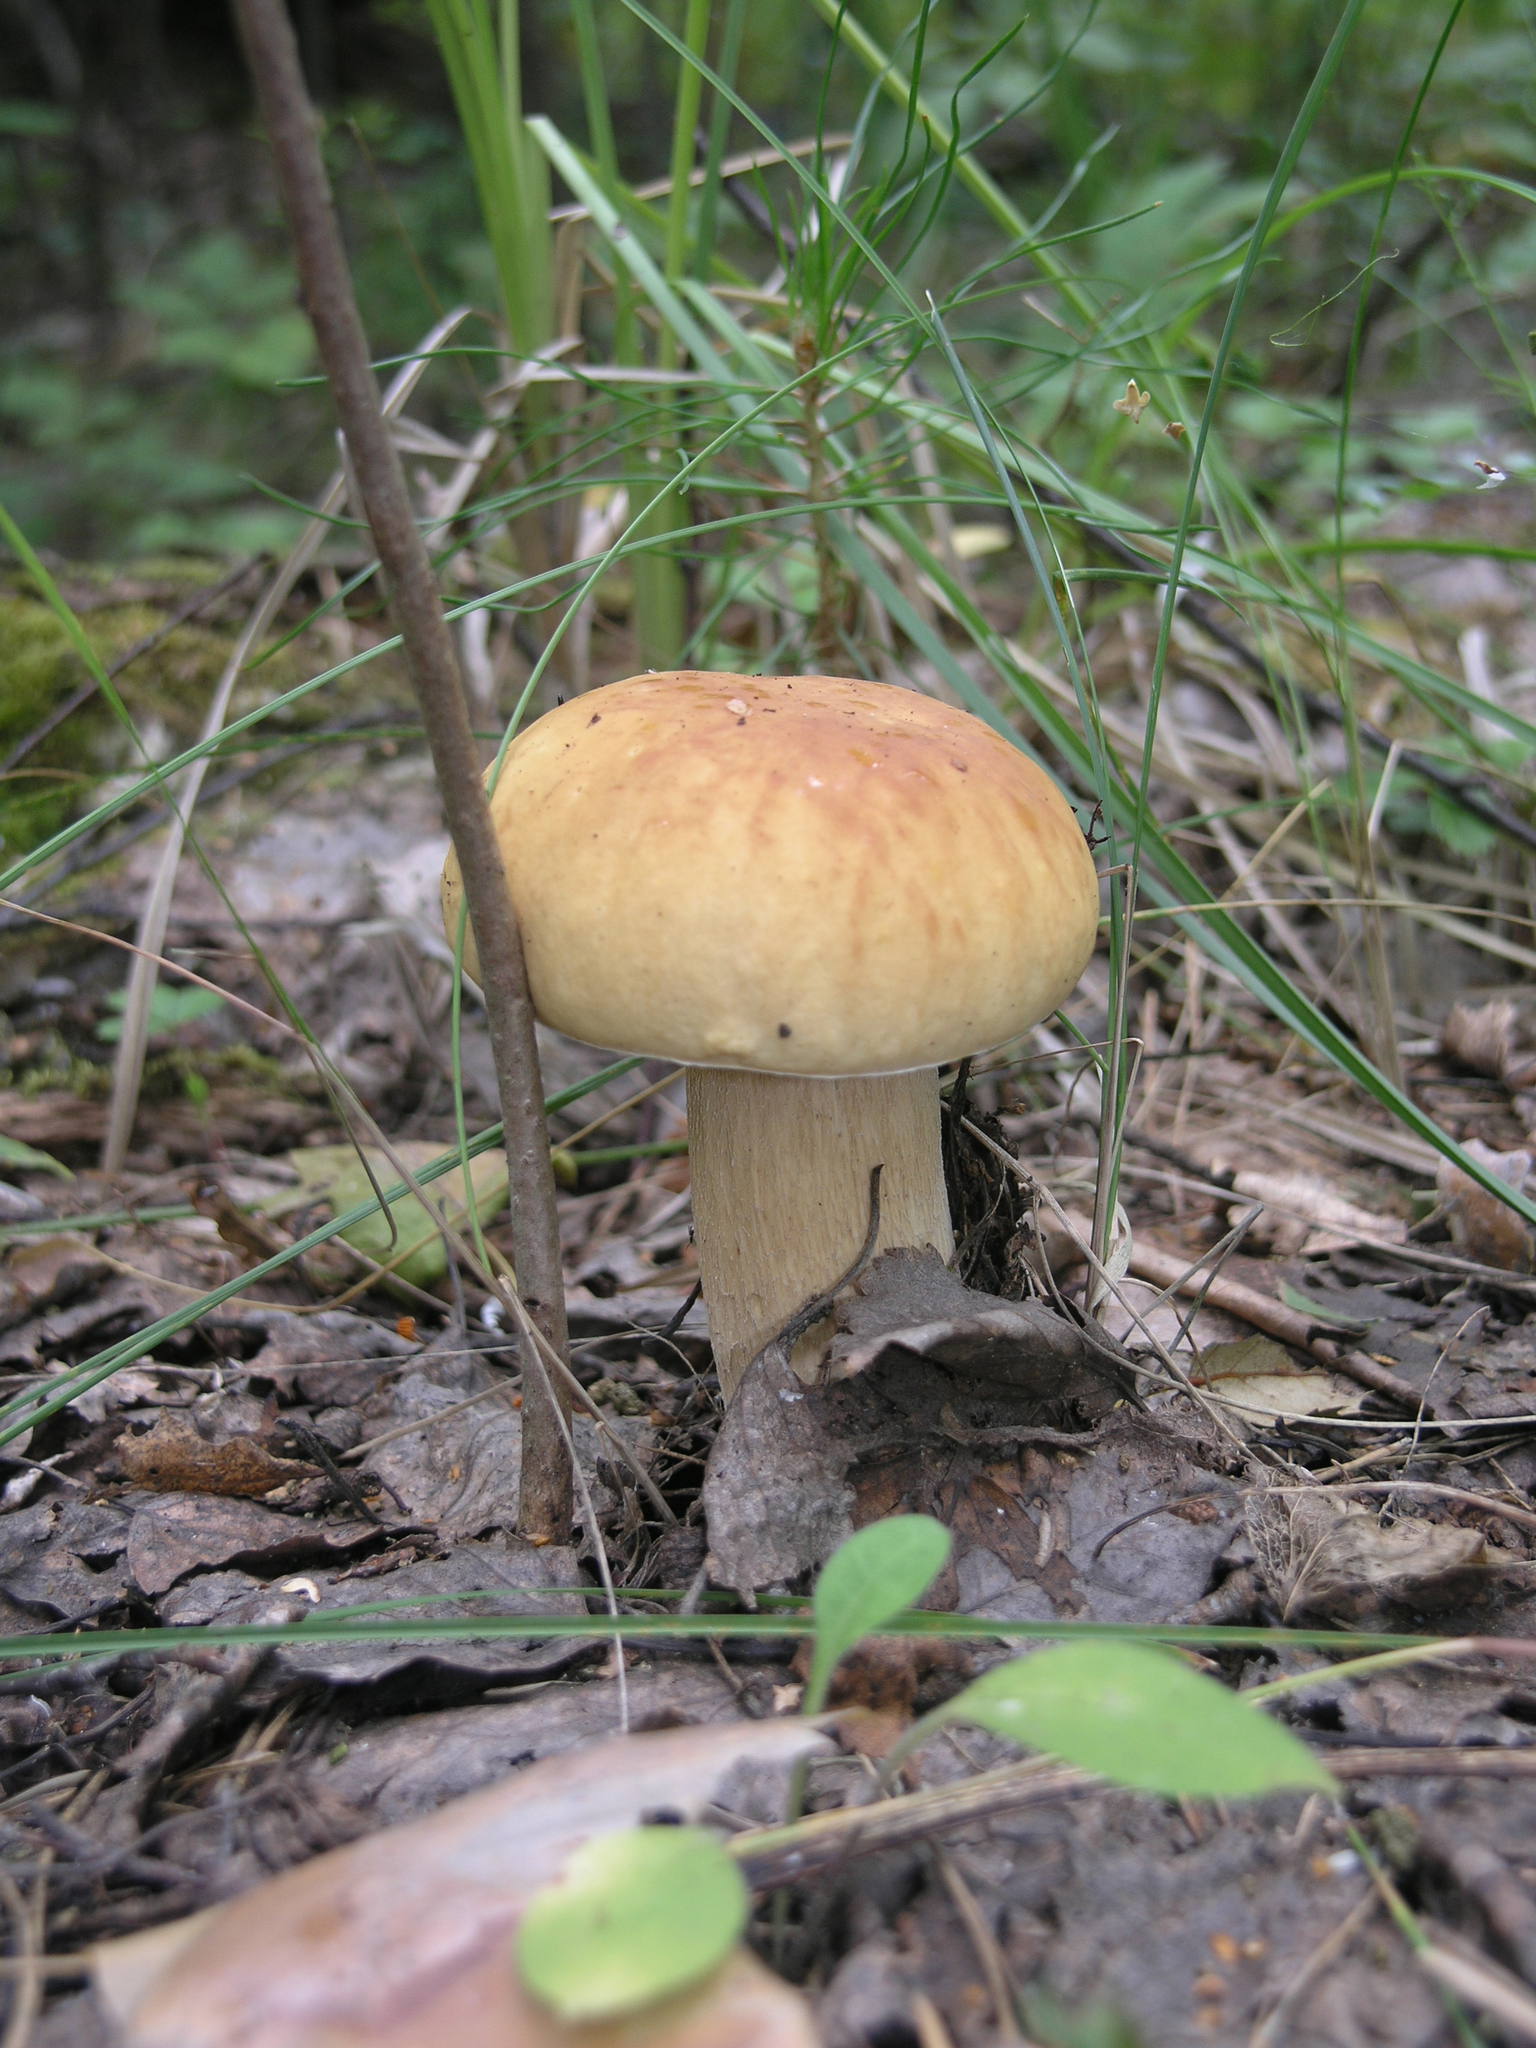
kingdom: Fungi
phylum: Basidiomycota
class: Agaricomycetes
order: Boletales
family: Boletaceae
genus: Boletus
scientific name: Boletus edulis
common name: Cep
